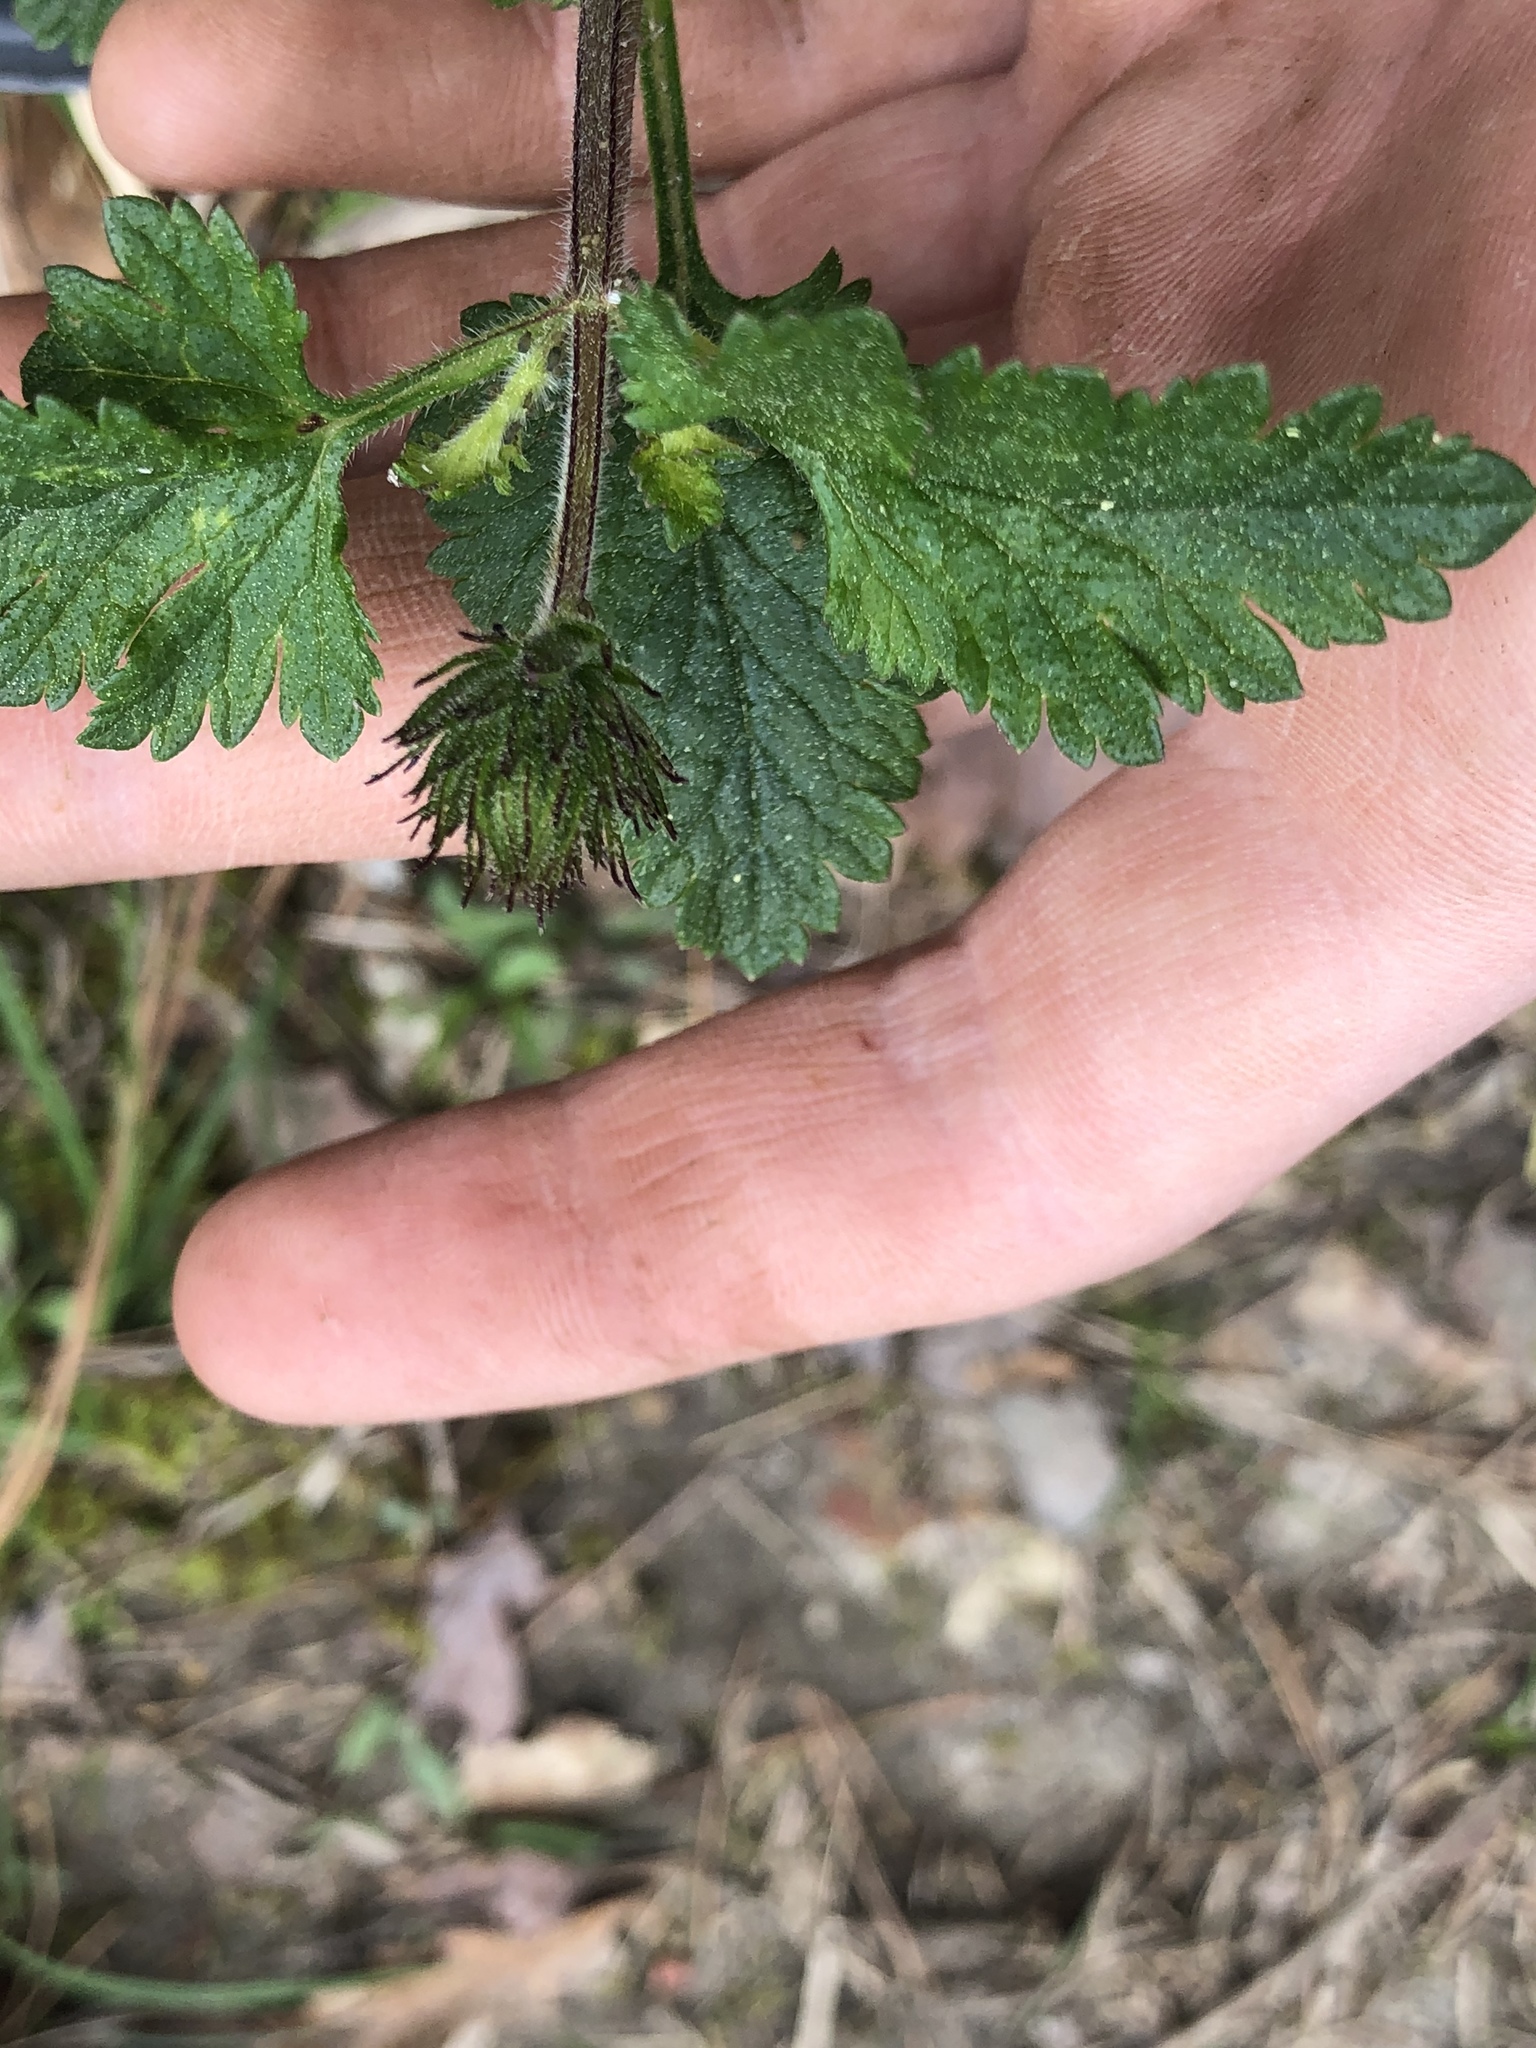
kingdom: Plantae
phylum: Tracheophyta
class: Magnoliopsida
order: Lamiales
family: Verbenaceae
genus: Verbena
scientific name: Verbena canadensis
